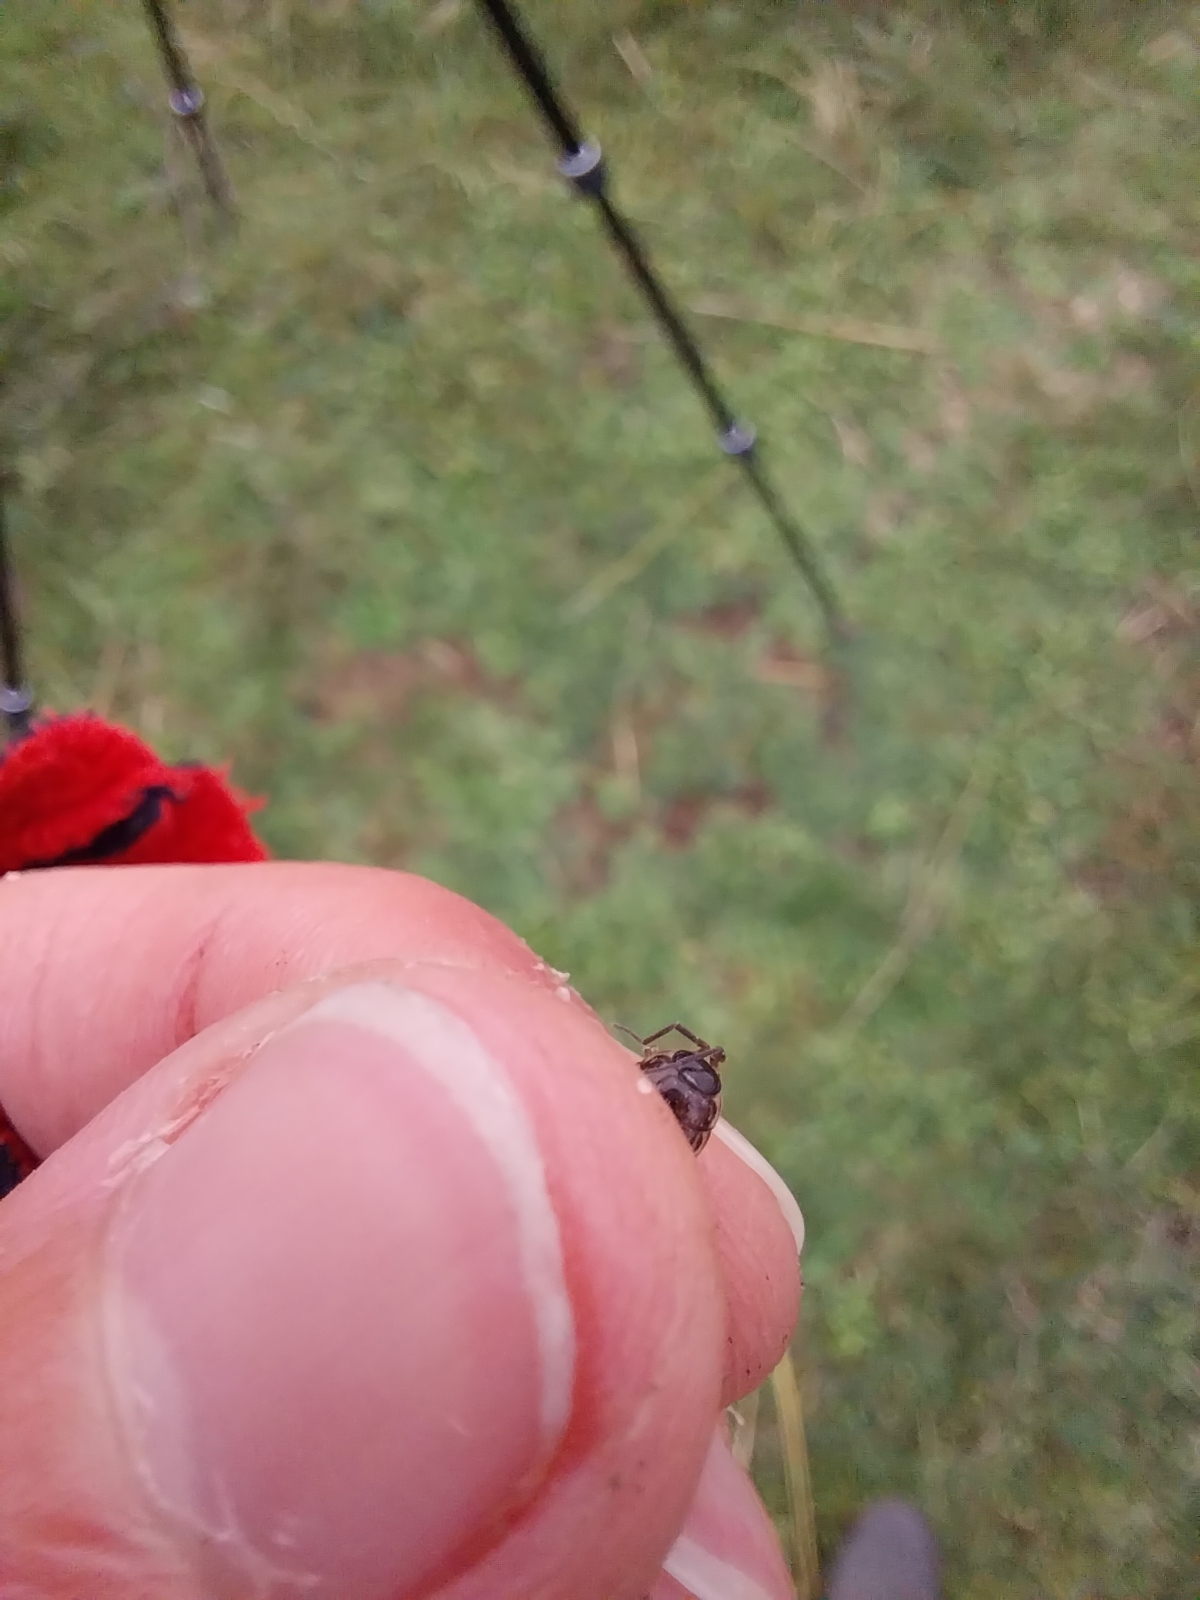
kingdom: Animalia
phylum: Arthropoda
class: Malacostraca
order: Isopoda
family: Philosciidae
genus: Philoscia
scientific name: Philoscia muscorum
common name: Common striped woodlouse
